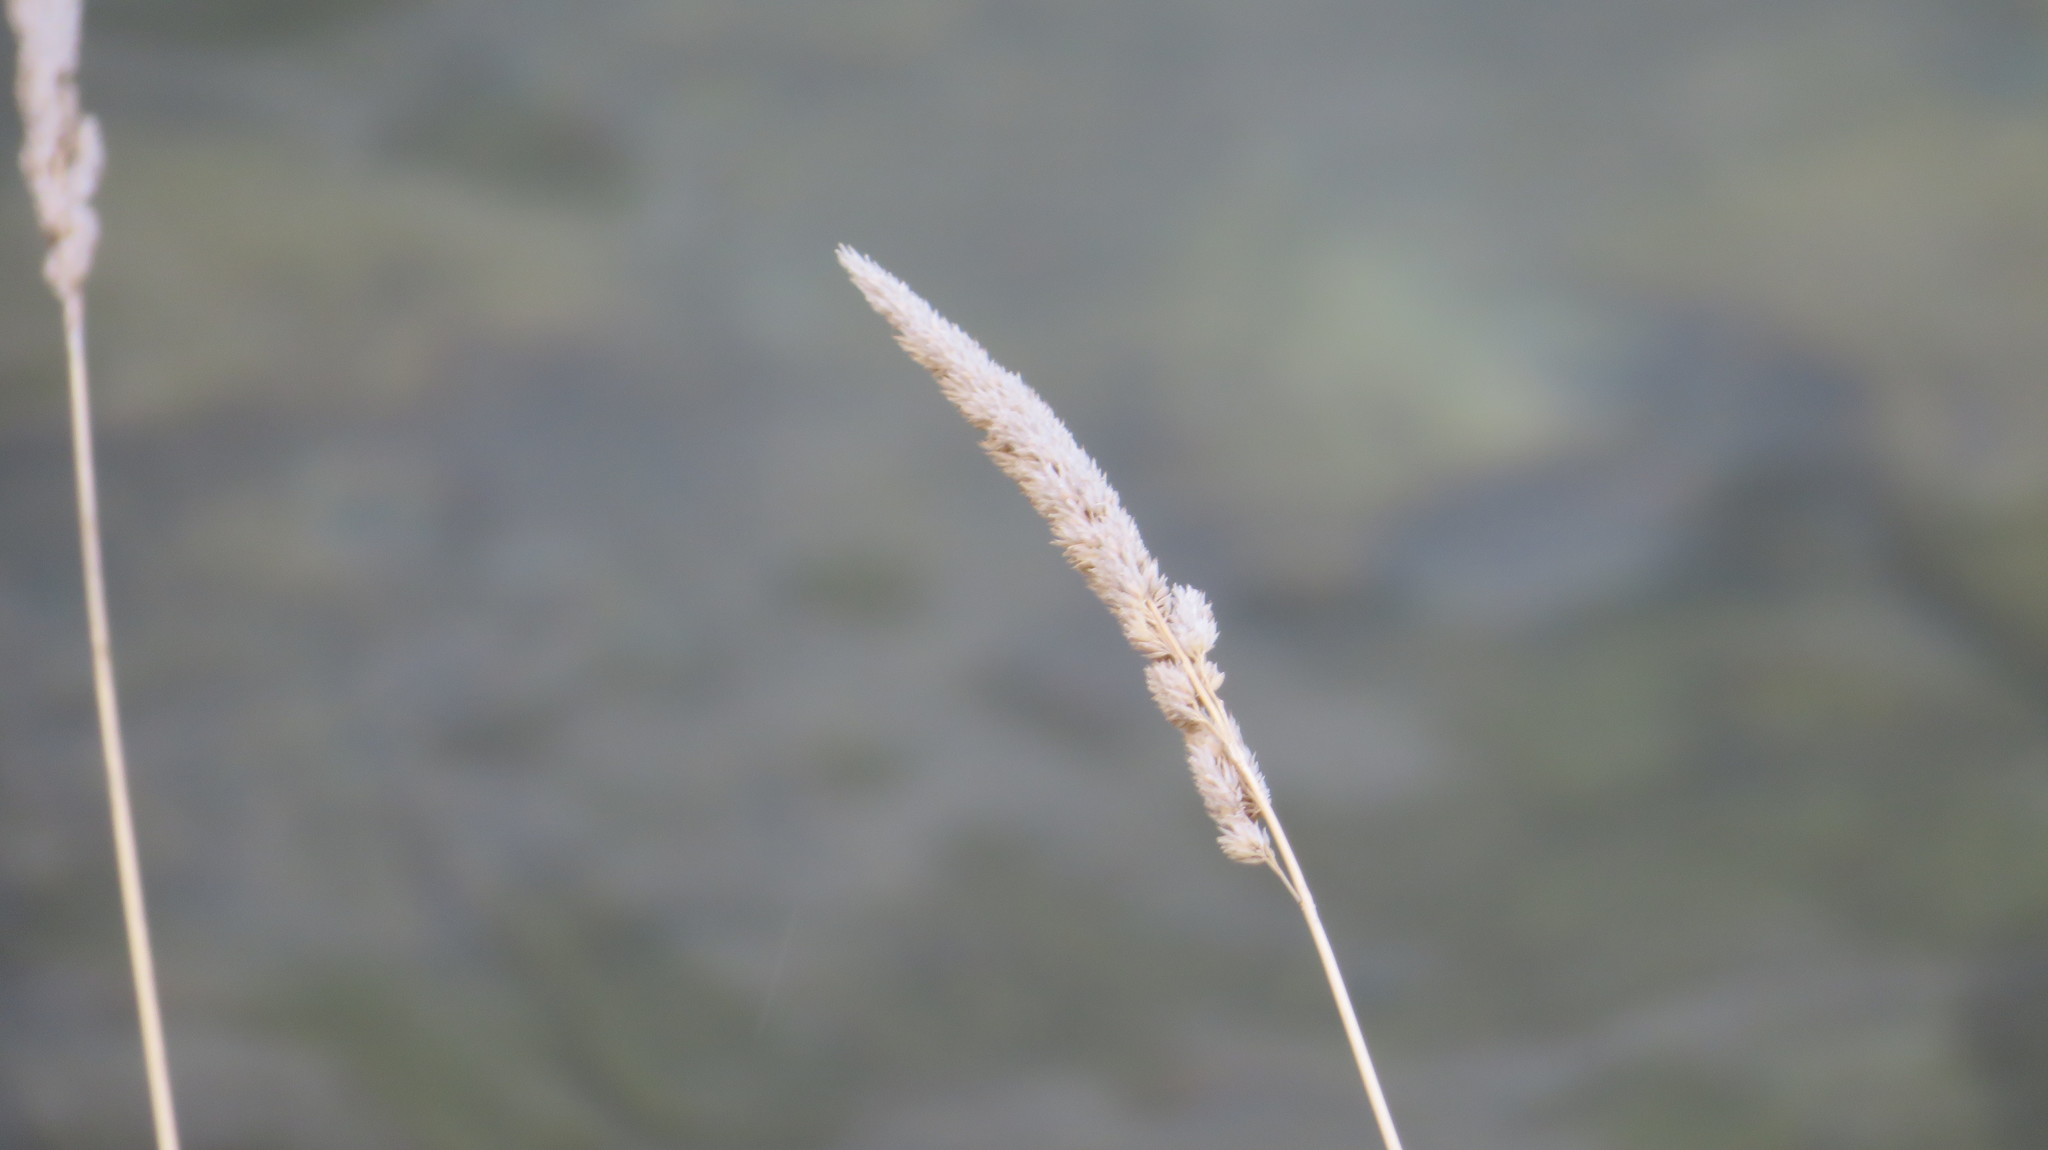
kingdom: Plantae
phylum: Tracheophyta
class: Liliopsida
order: Poales
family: Poaceae
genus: Phalaris
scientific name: Phalaris arundinacea
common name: Reed canary-grass
